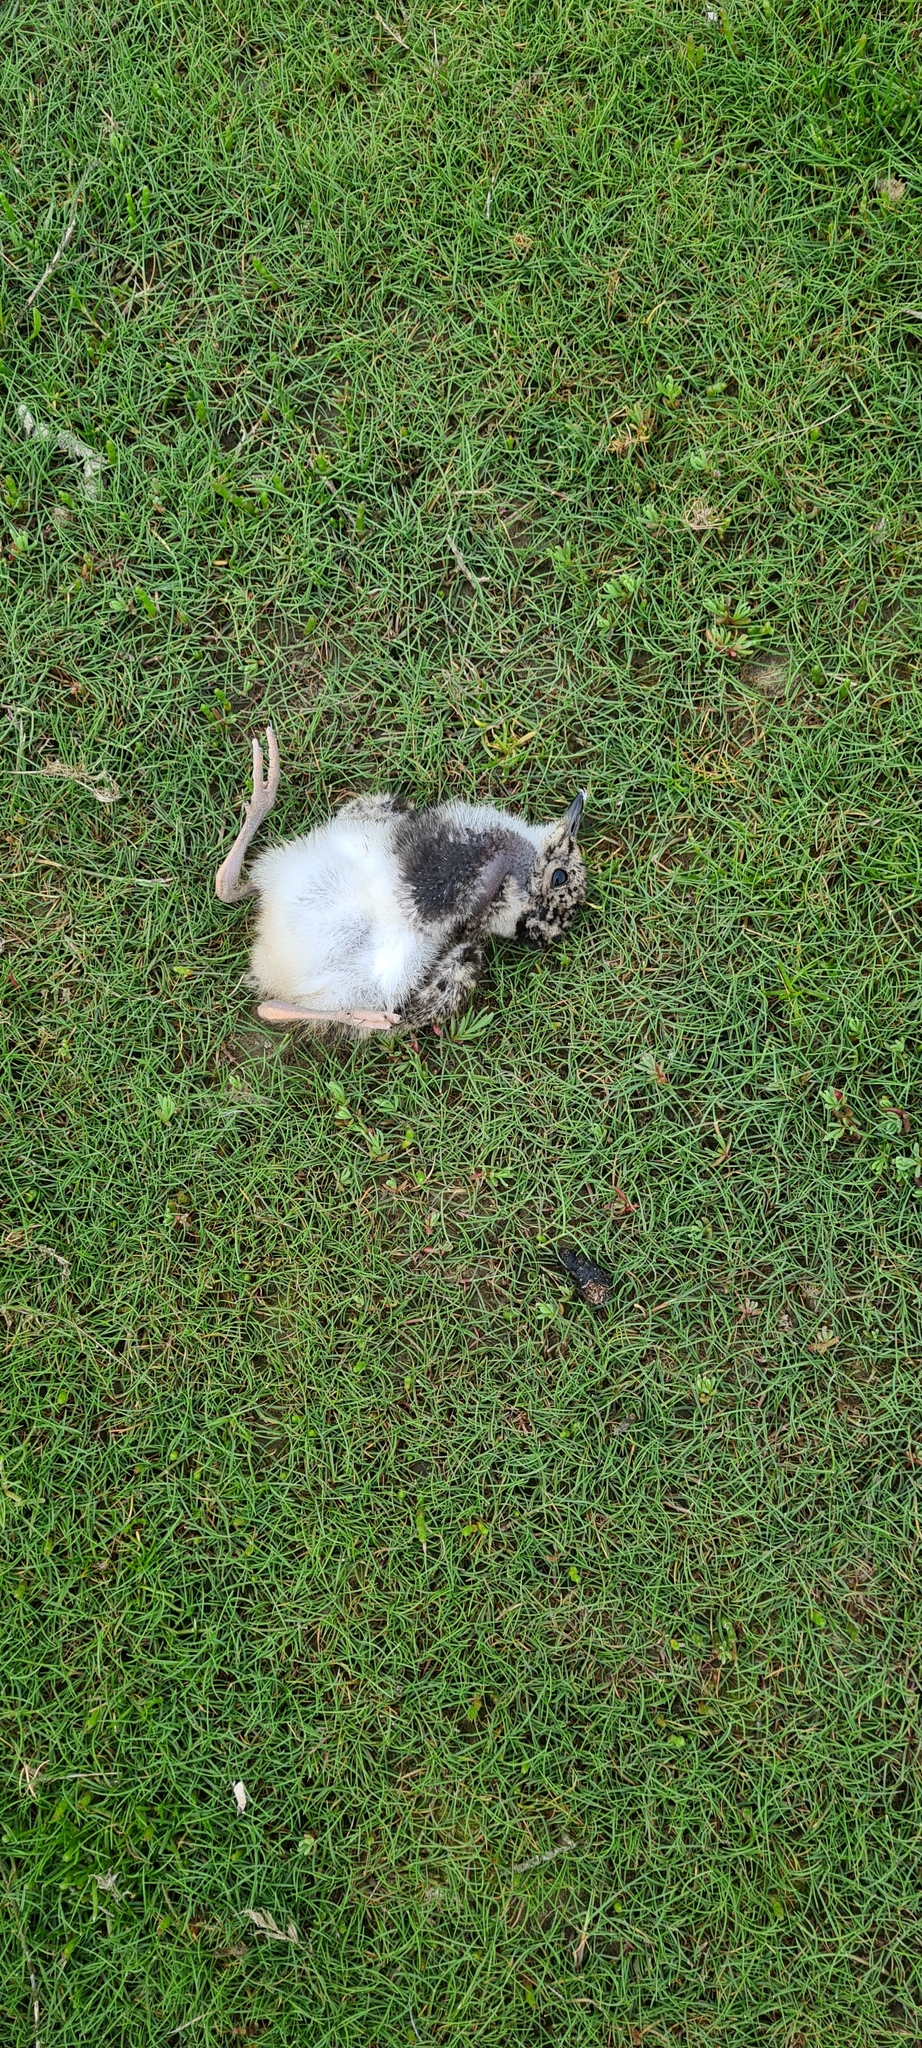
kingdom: Animalia
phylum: Chordata
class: Aves
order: Charadriiformes
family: Charadriidae
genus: Vanellus
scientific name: Vanellus vanellus
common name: Northern lapwing
